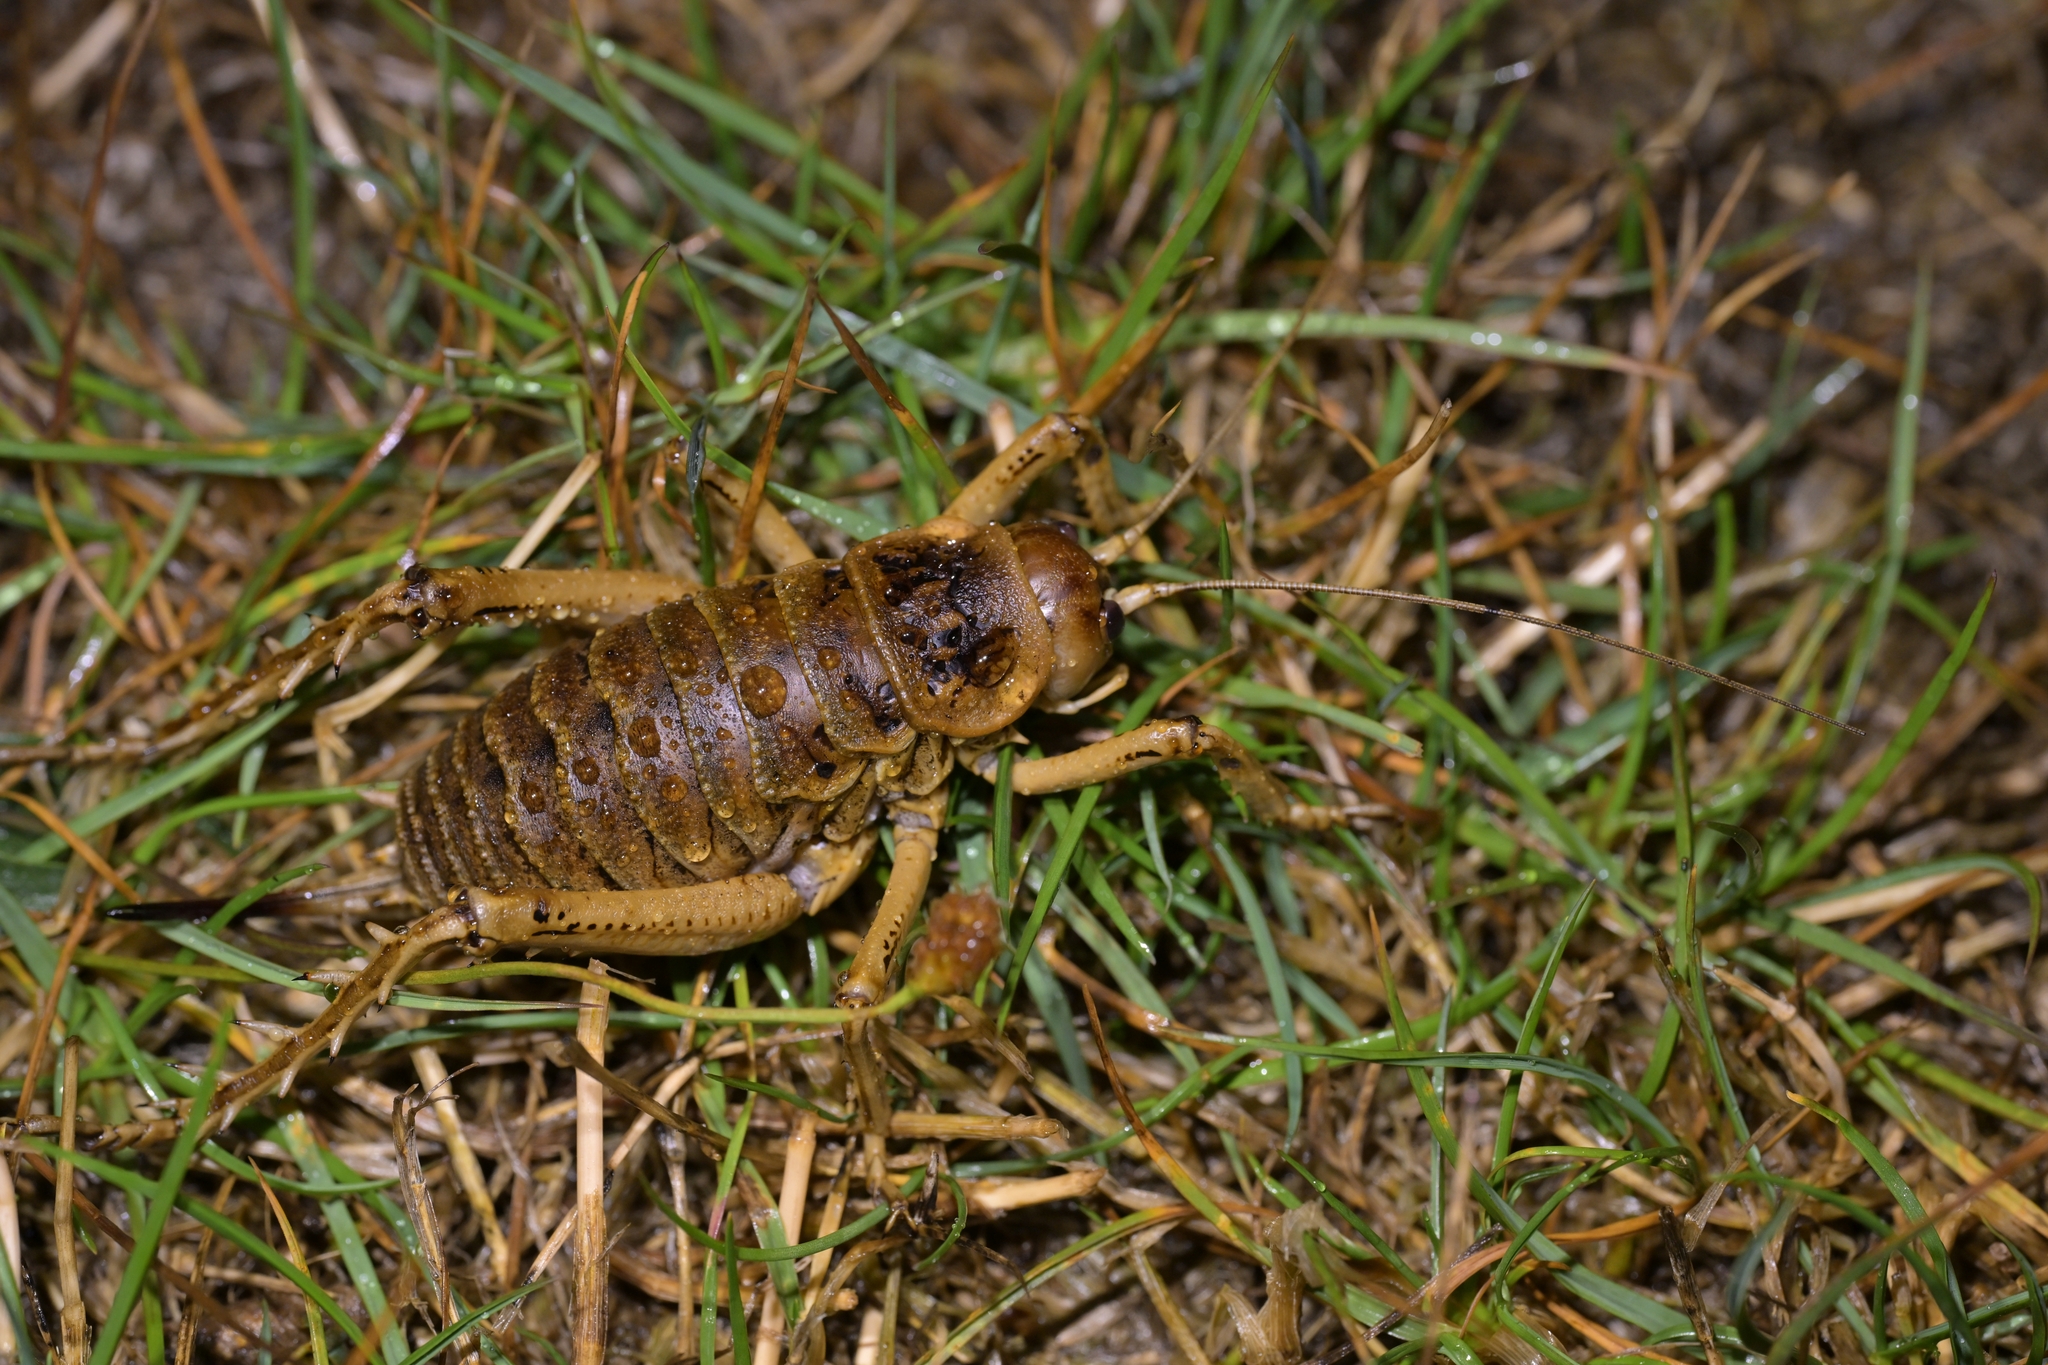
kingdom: Animalia
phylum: Arthropoda
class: Insecta
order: Orthoptera
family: Anostostomatidae
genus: Deinacrida
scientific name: Deinacrida rugosa
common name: Stephens island weta
